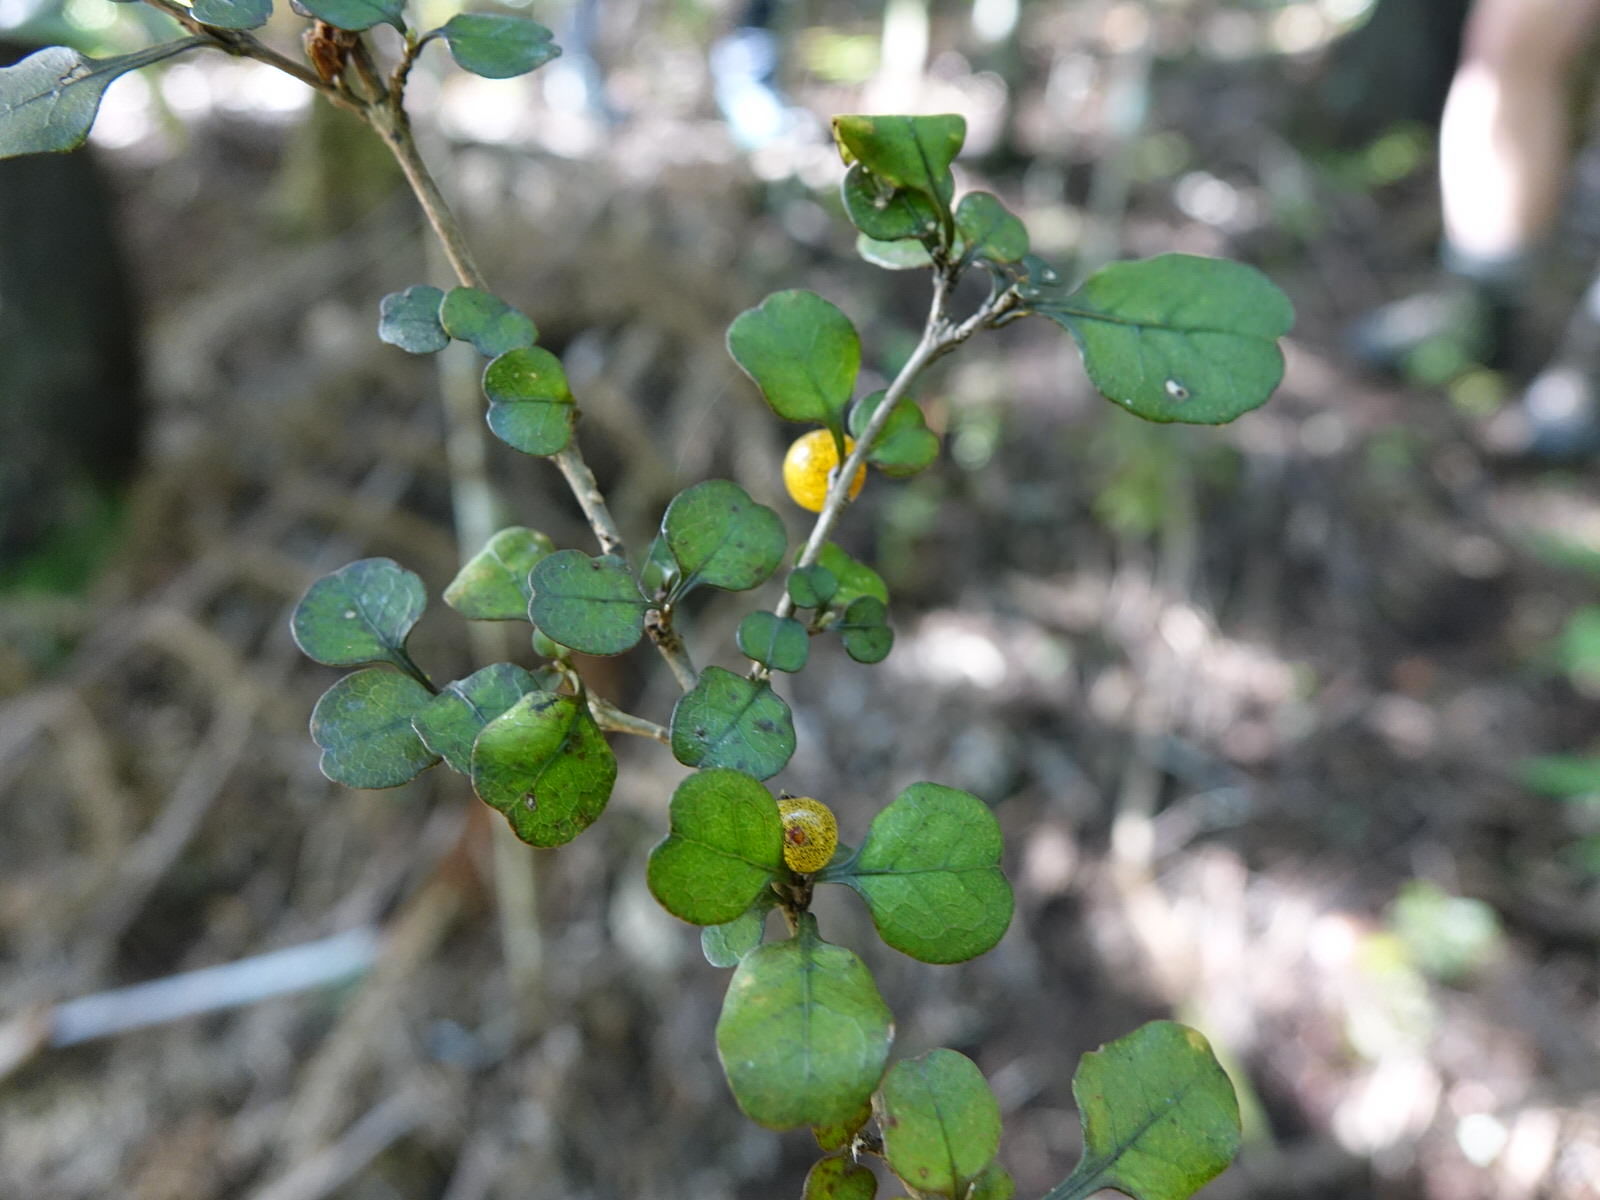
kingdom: Plantae
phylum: Tracheophyta
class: Magnoliopsida
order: Gentianales
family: Rubiaceae
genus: Coprosma
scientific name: Coprosma spathulata
